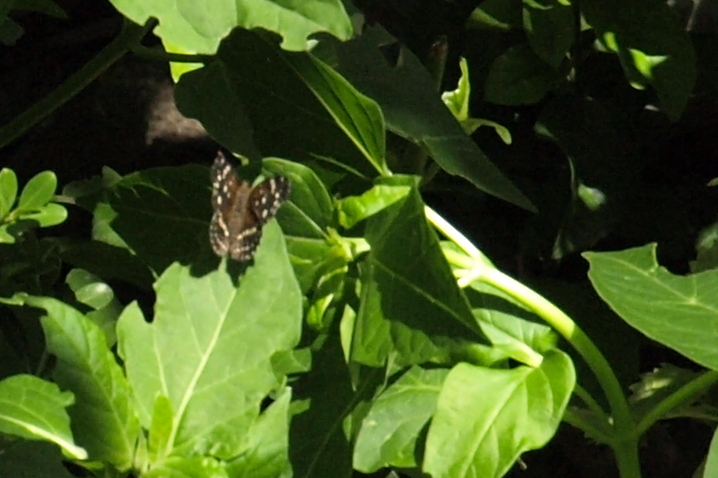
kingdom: Animalia
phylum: Arthropoda
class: Insecta
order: Lepidoptera
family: Nymphalidae
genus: Anthanassa
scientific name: Anthanassa texana
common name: Texan crescent
